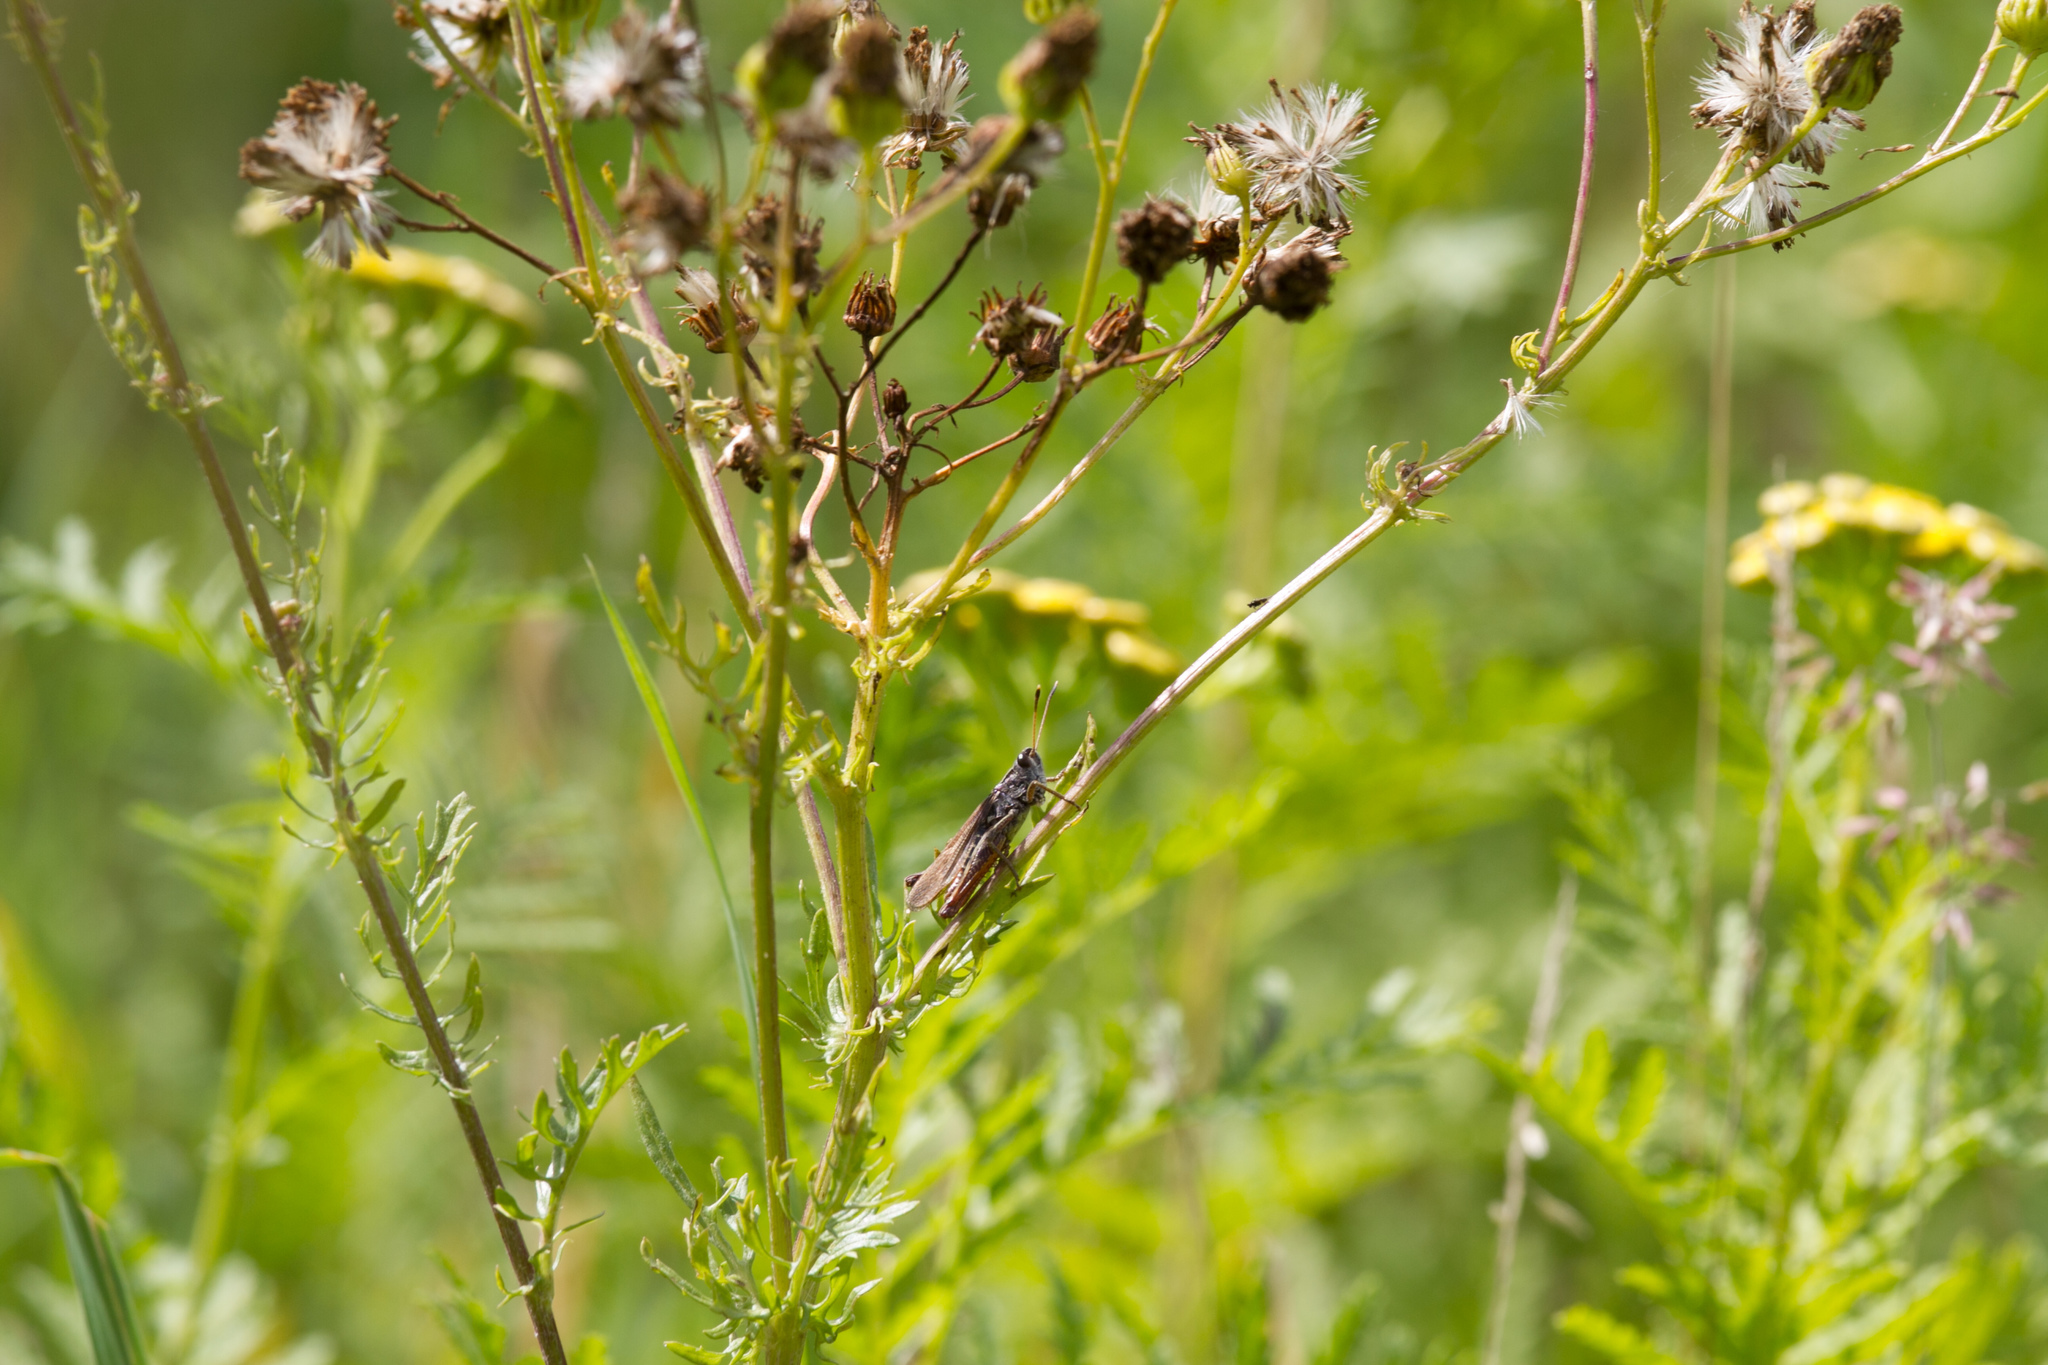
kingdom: Animalia
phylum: Arthropoda
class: Insecta
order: Orthoptera
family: Acrididae
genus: Gomphocerippus
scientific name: Gomphocerippus rufus
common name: Rufous grasshopper
